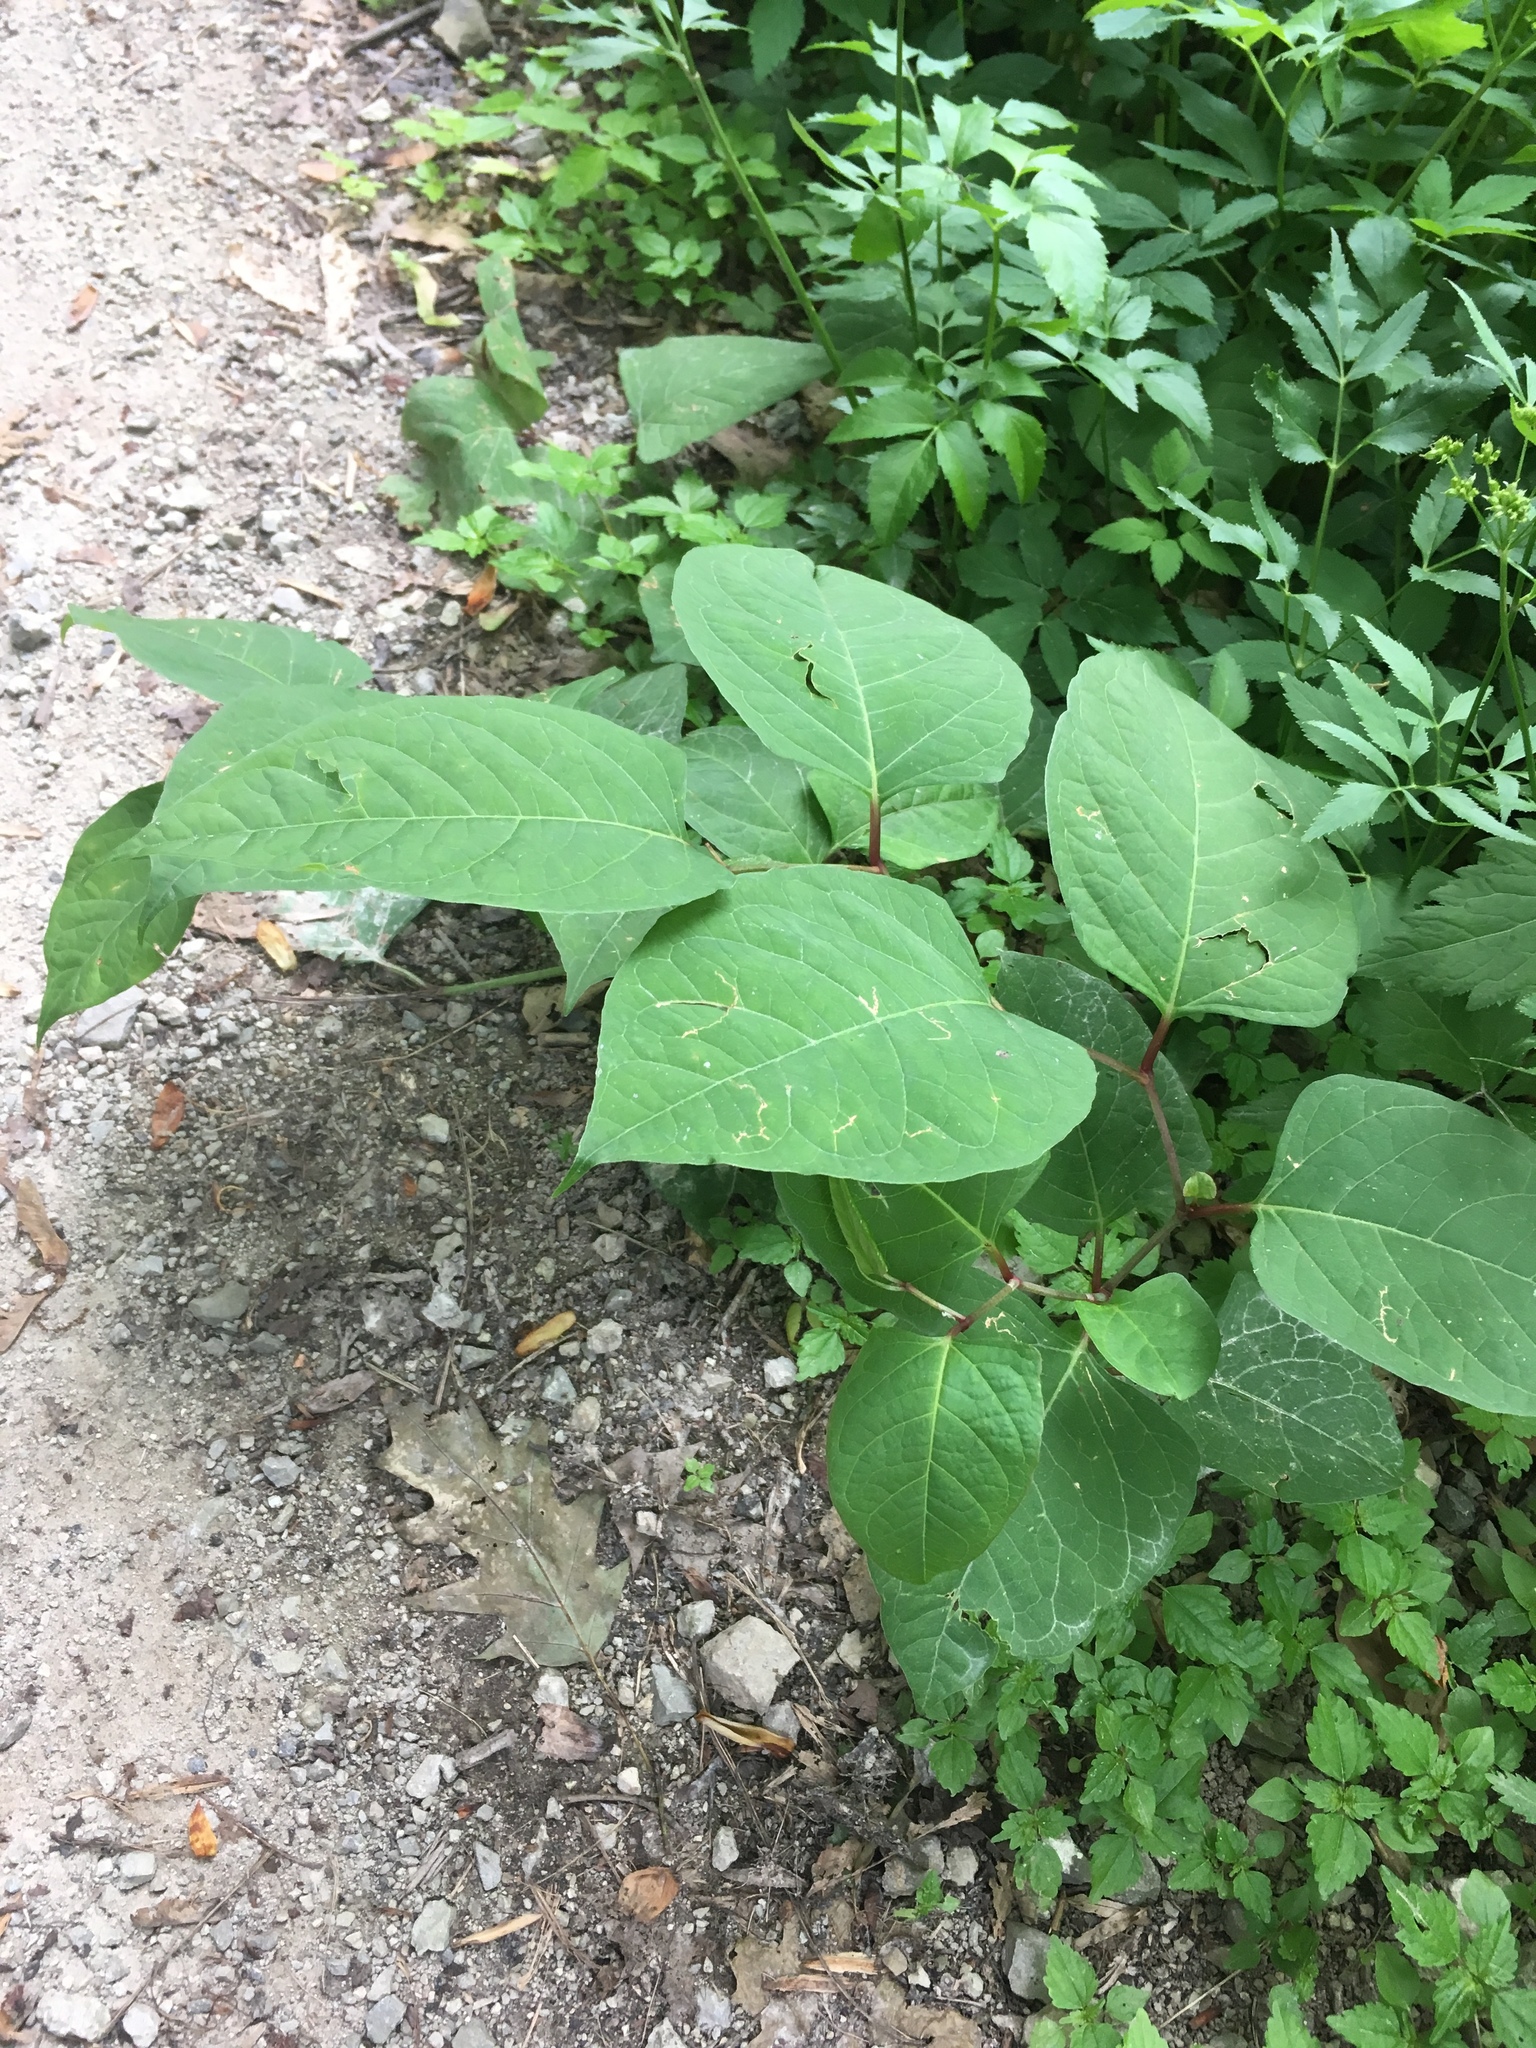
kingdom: Plantae
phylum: Tracheophyta
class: Magnoliopsida
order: Caryophyllales
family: Polygonaceae
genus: Reynoutria
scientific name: Reynoutria japonica
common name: Japanese knotweed
